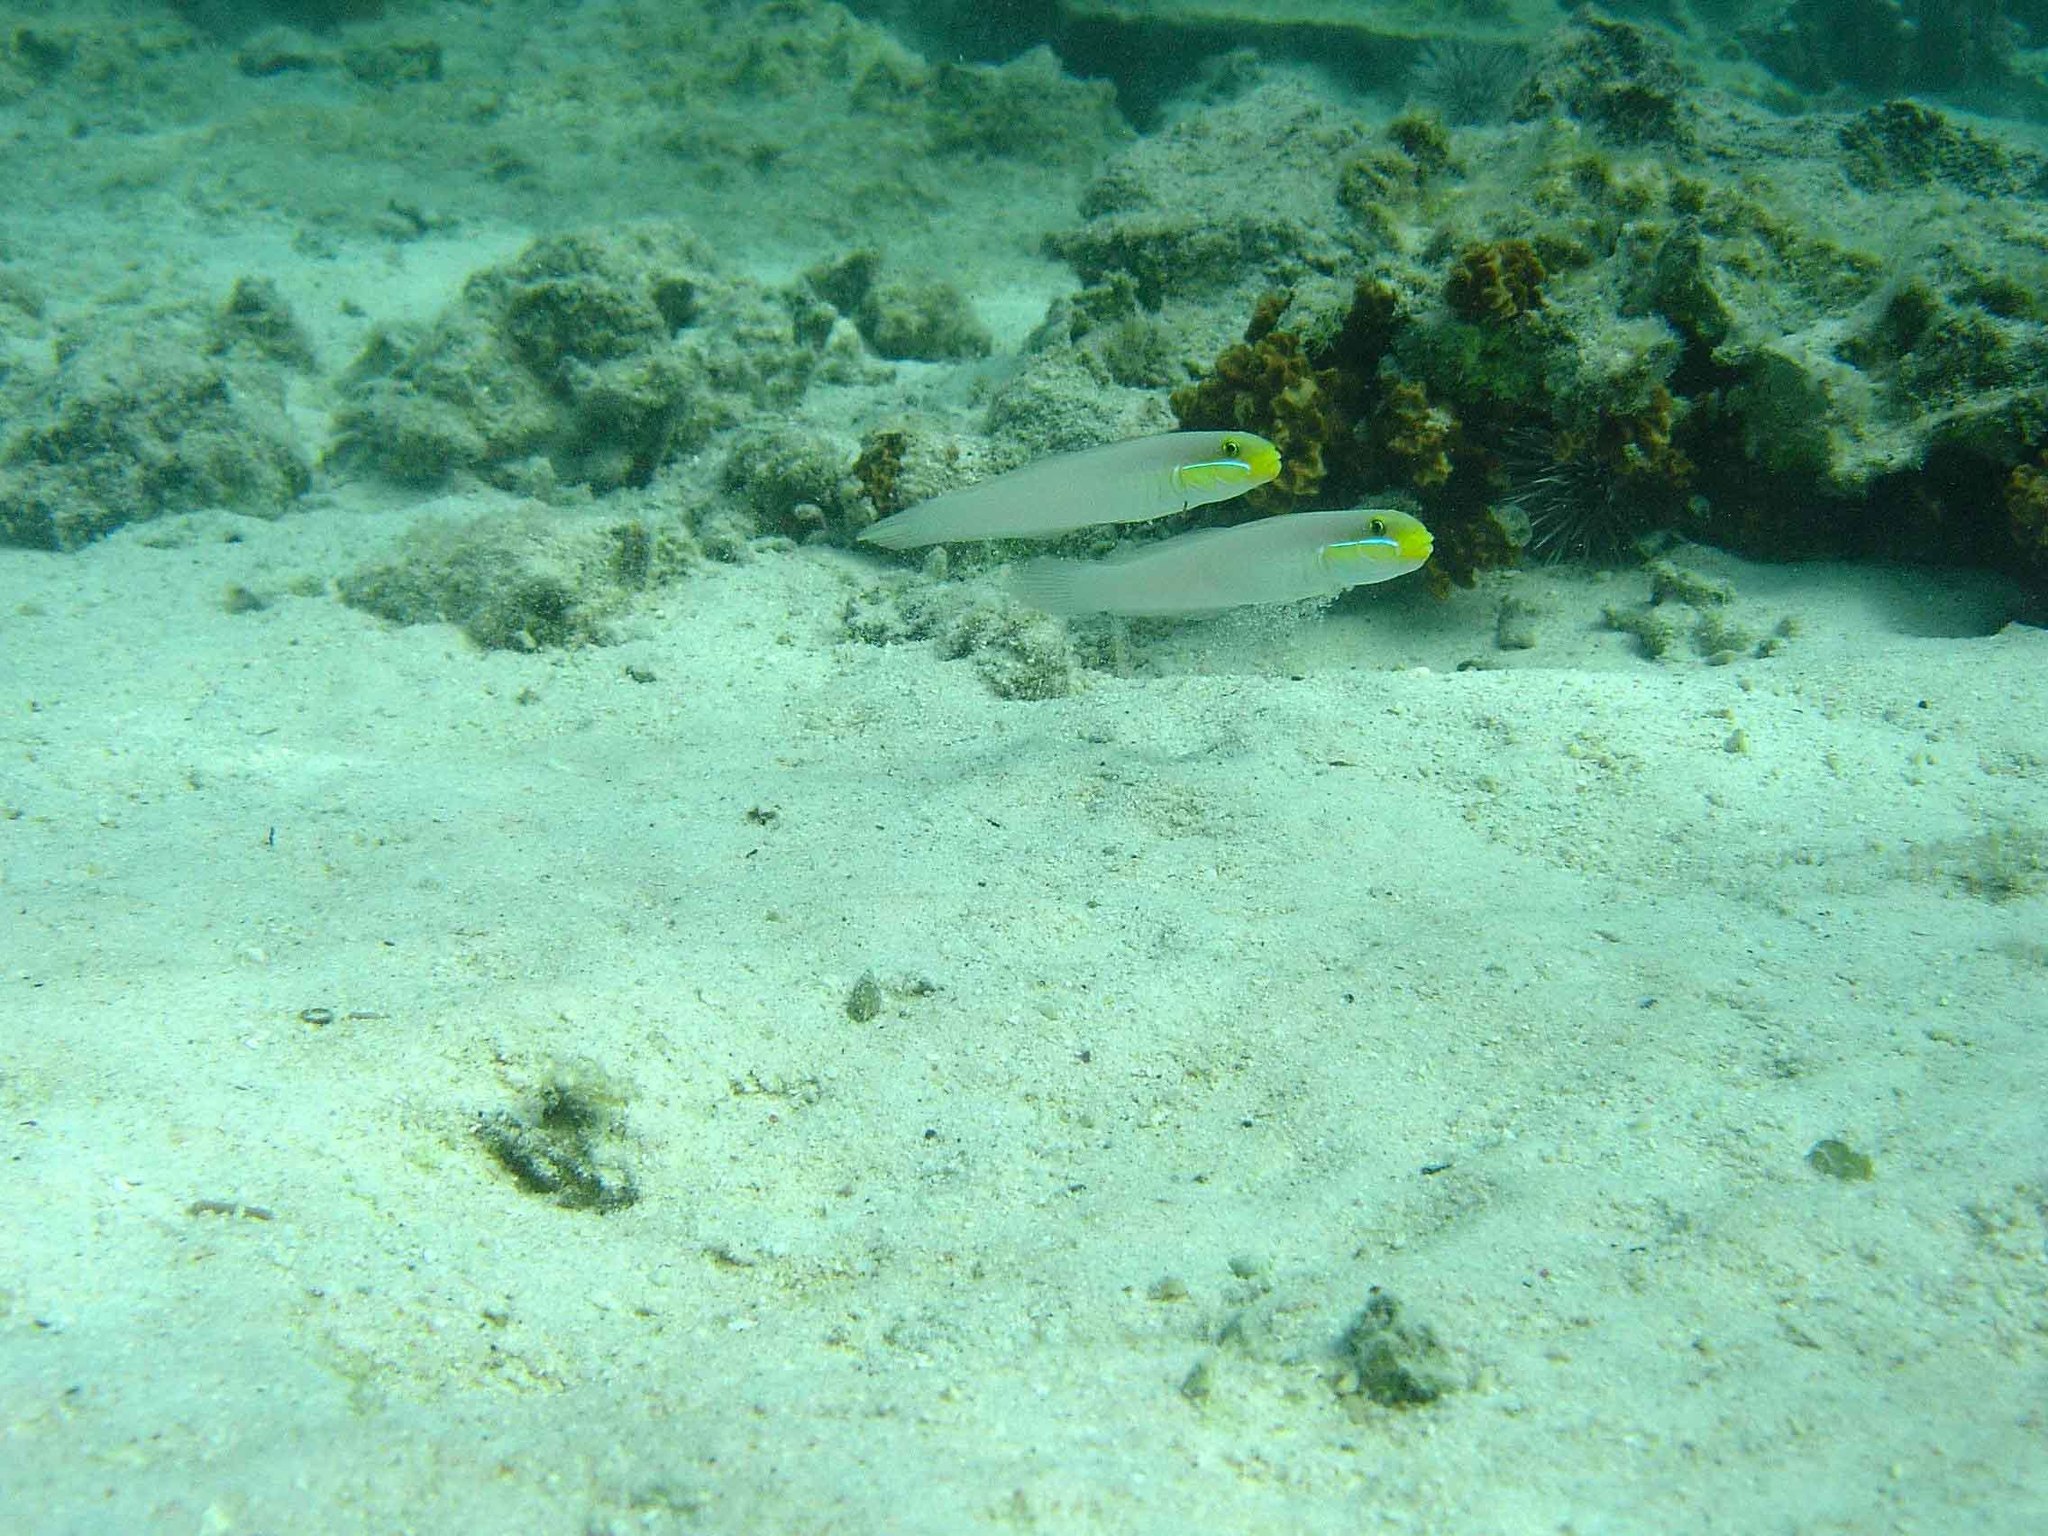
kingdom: Animalia
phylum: Chordata
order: Perciformes
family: Gobiidae
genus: Valenciennea
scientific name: Valenciennea strigata
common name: Blueband goby
